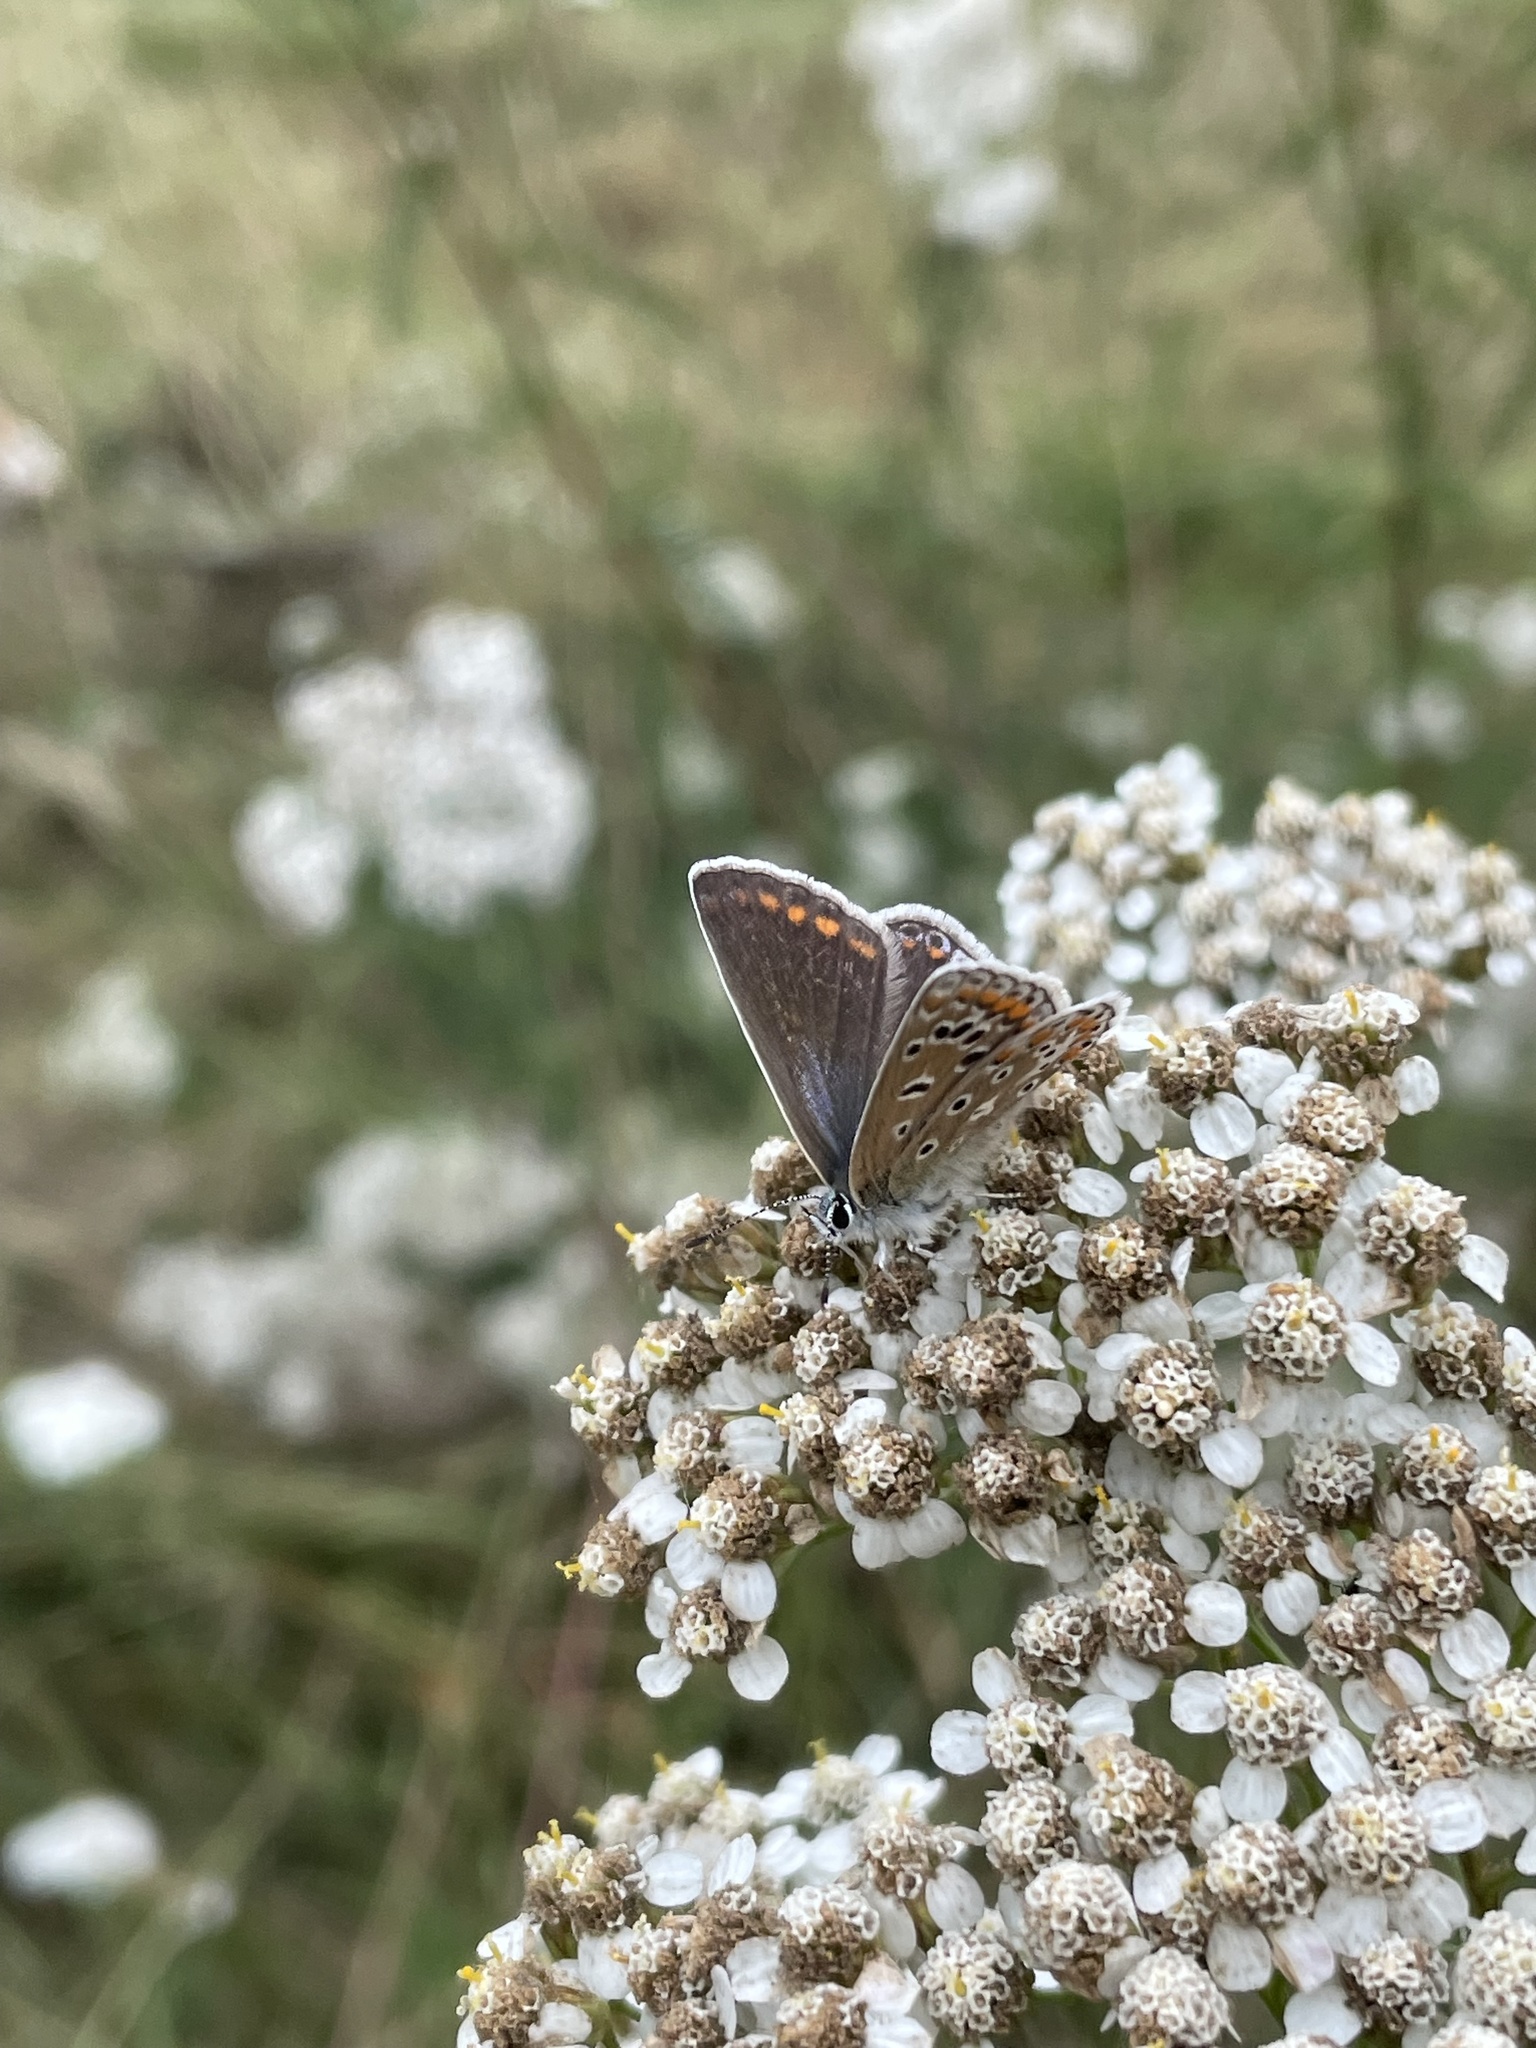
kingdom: Animalia
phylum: Arthropoda
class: Insecta
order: Lepidoptera
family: Lycaenidae
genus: Polyommatus
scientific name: Polyommatus icarus
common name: Common blue
